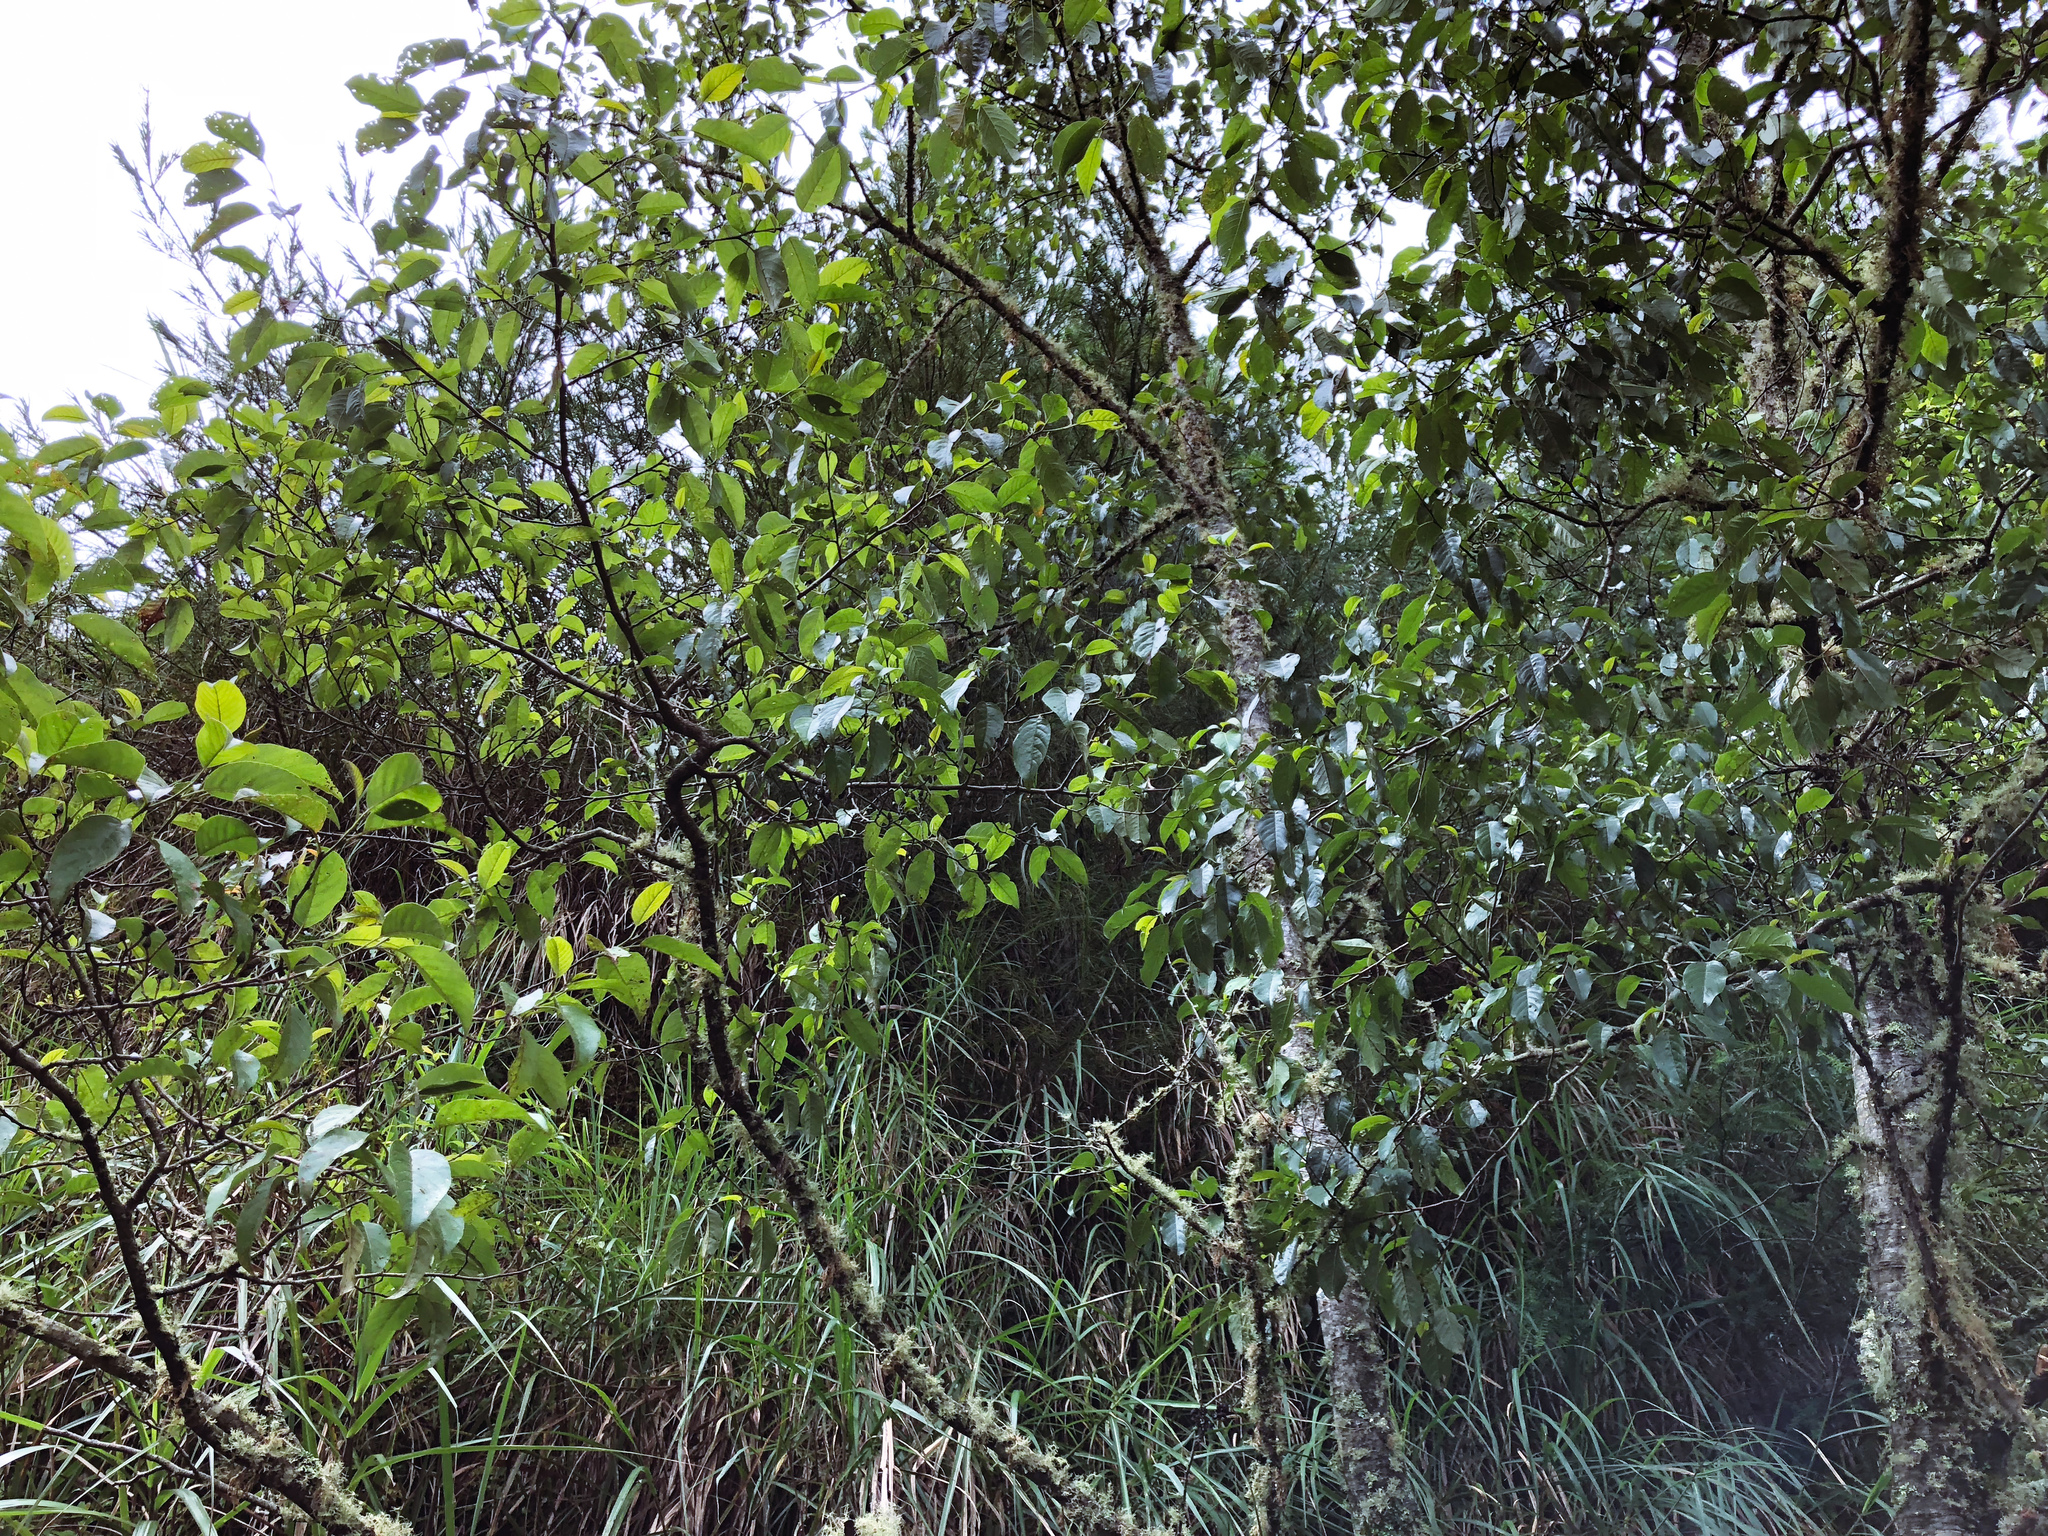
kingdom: Plantae
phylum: Tracheophyta
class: Magnoliopsida
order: Fagales
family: Betulaceae
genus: Alnus
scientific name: Alnus formosana
